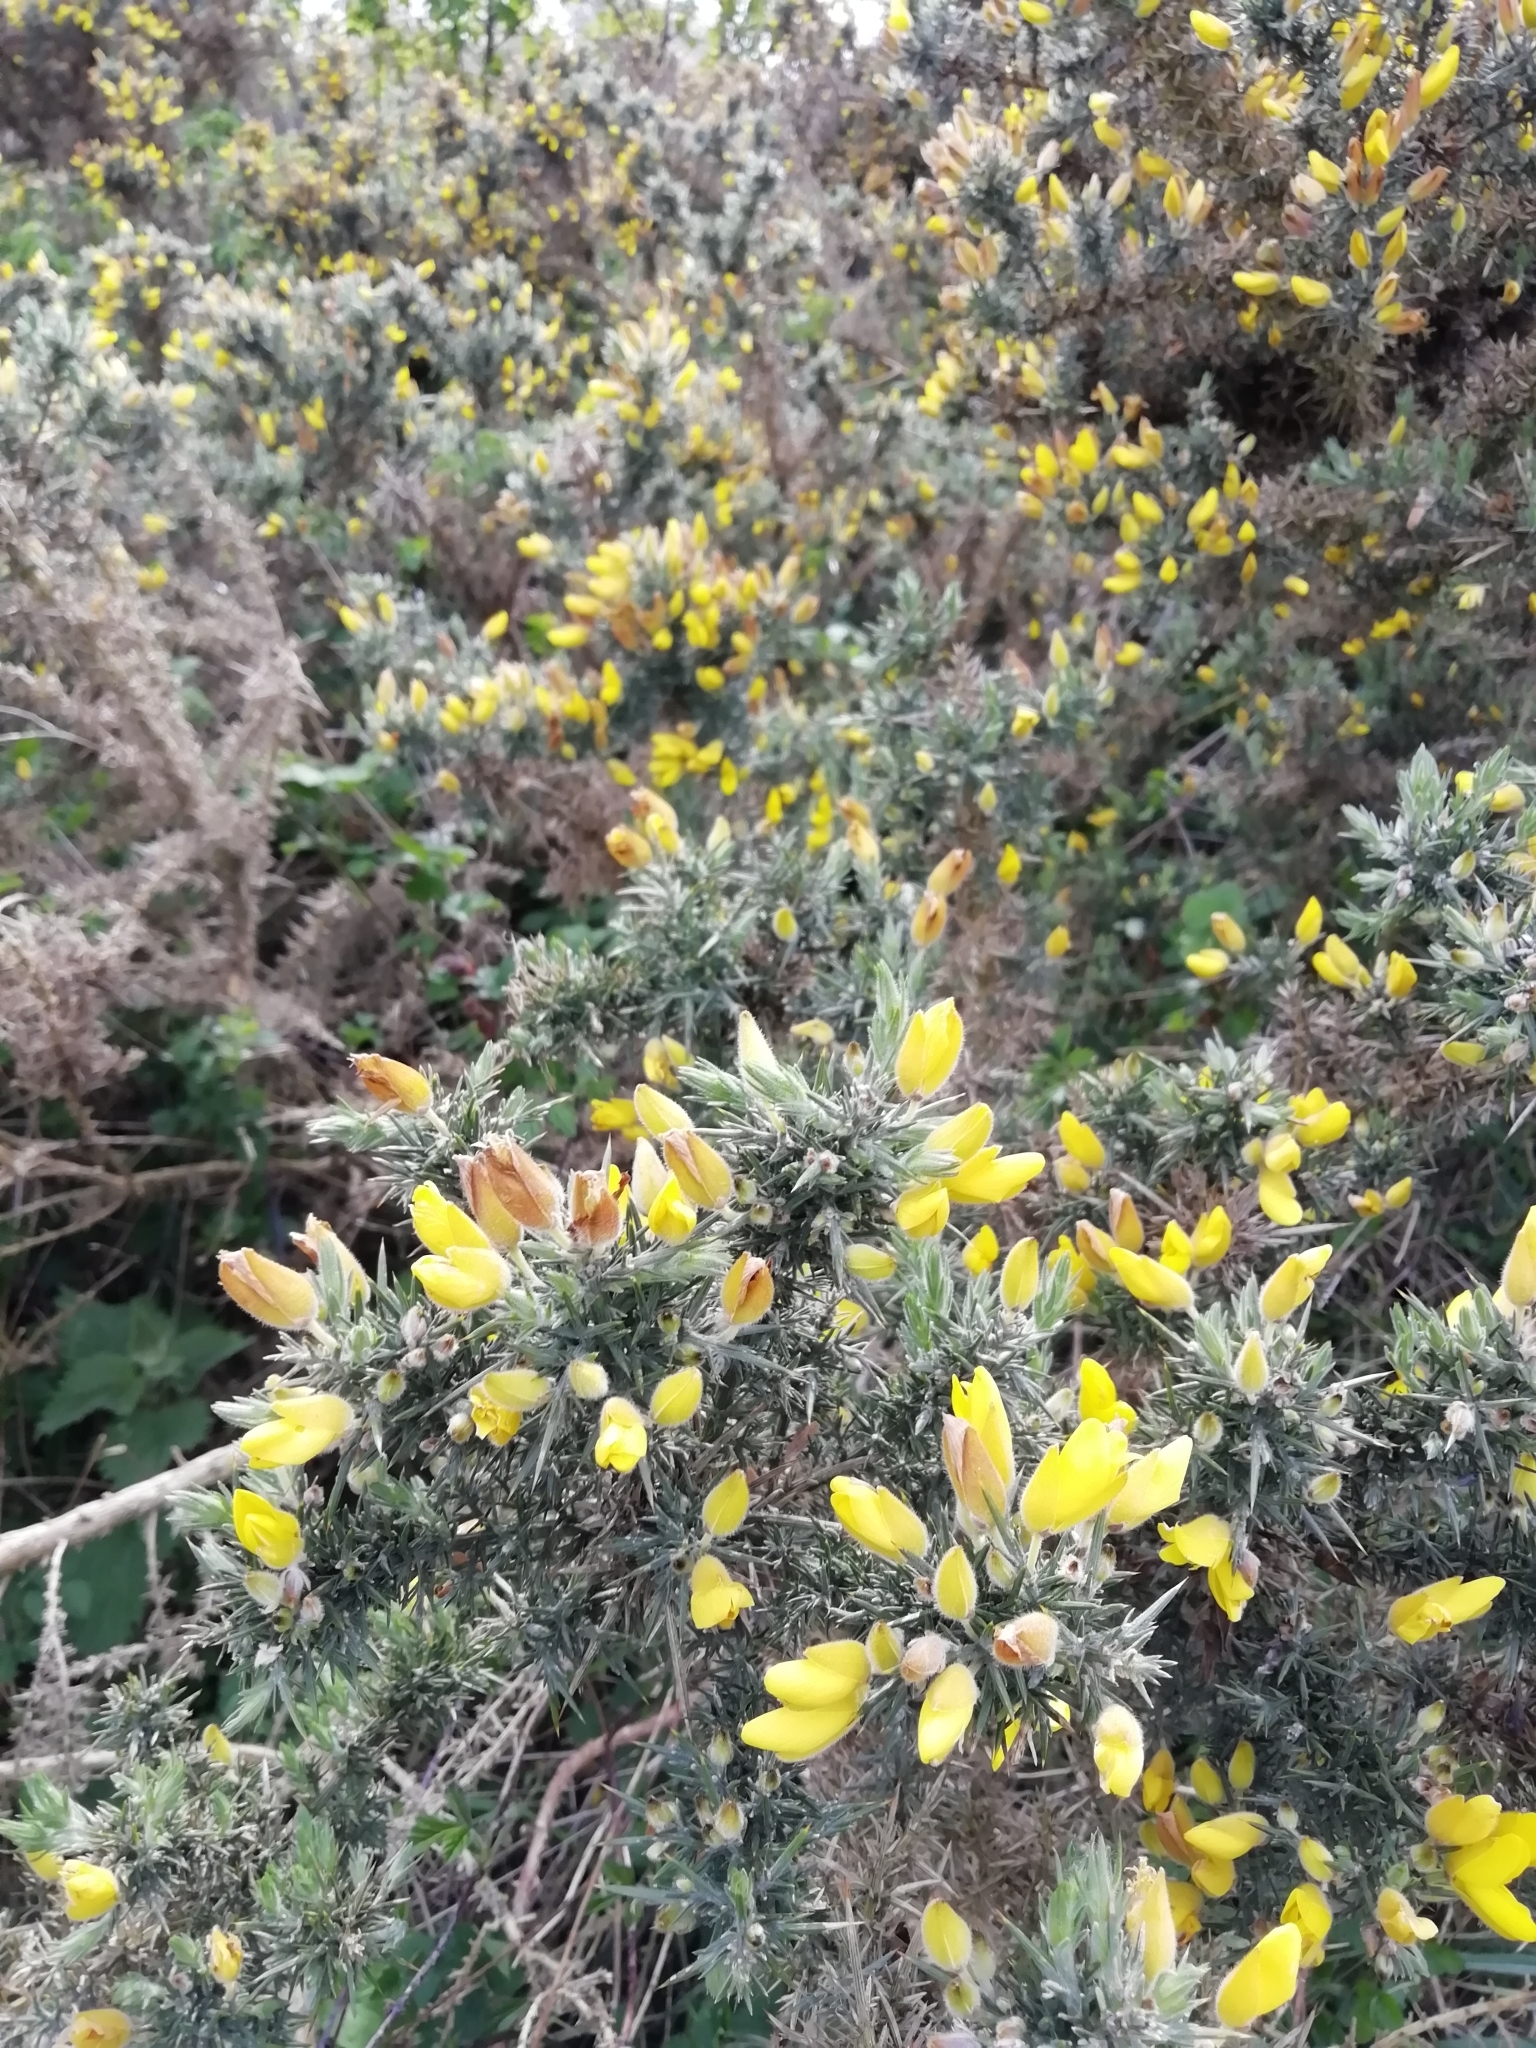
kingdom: Plantae
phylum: Tracheophyta
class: Magnoliopsida
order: Fabales
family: Fabaceae
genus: Ulex
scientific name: Ulex europaeus
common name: Common gorse
